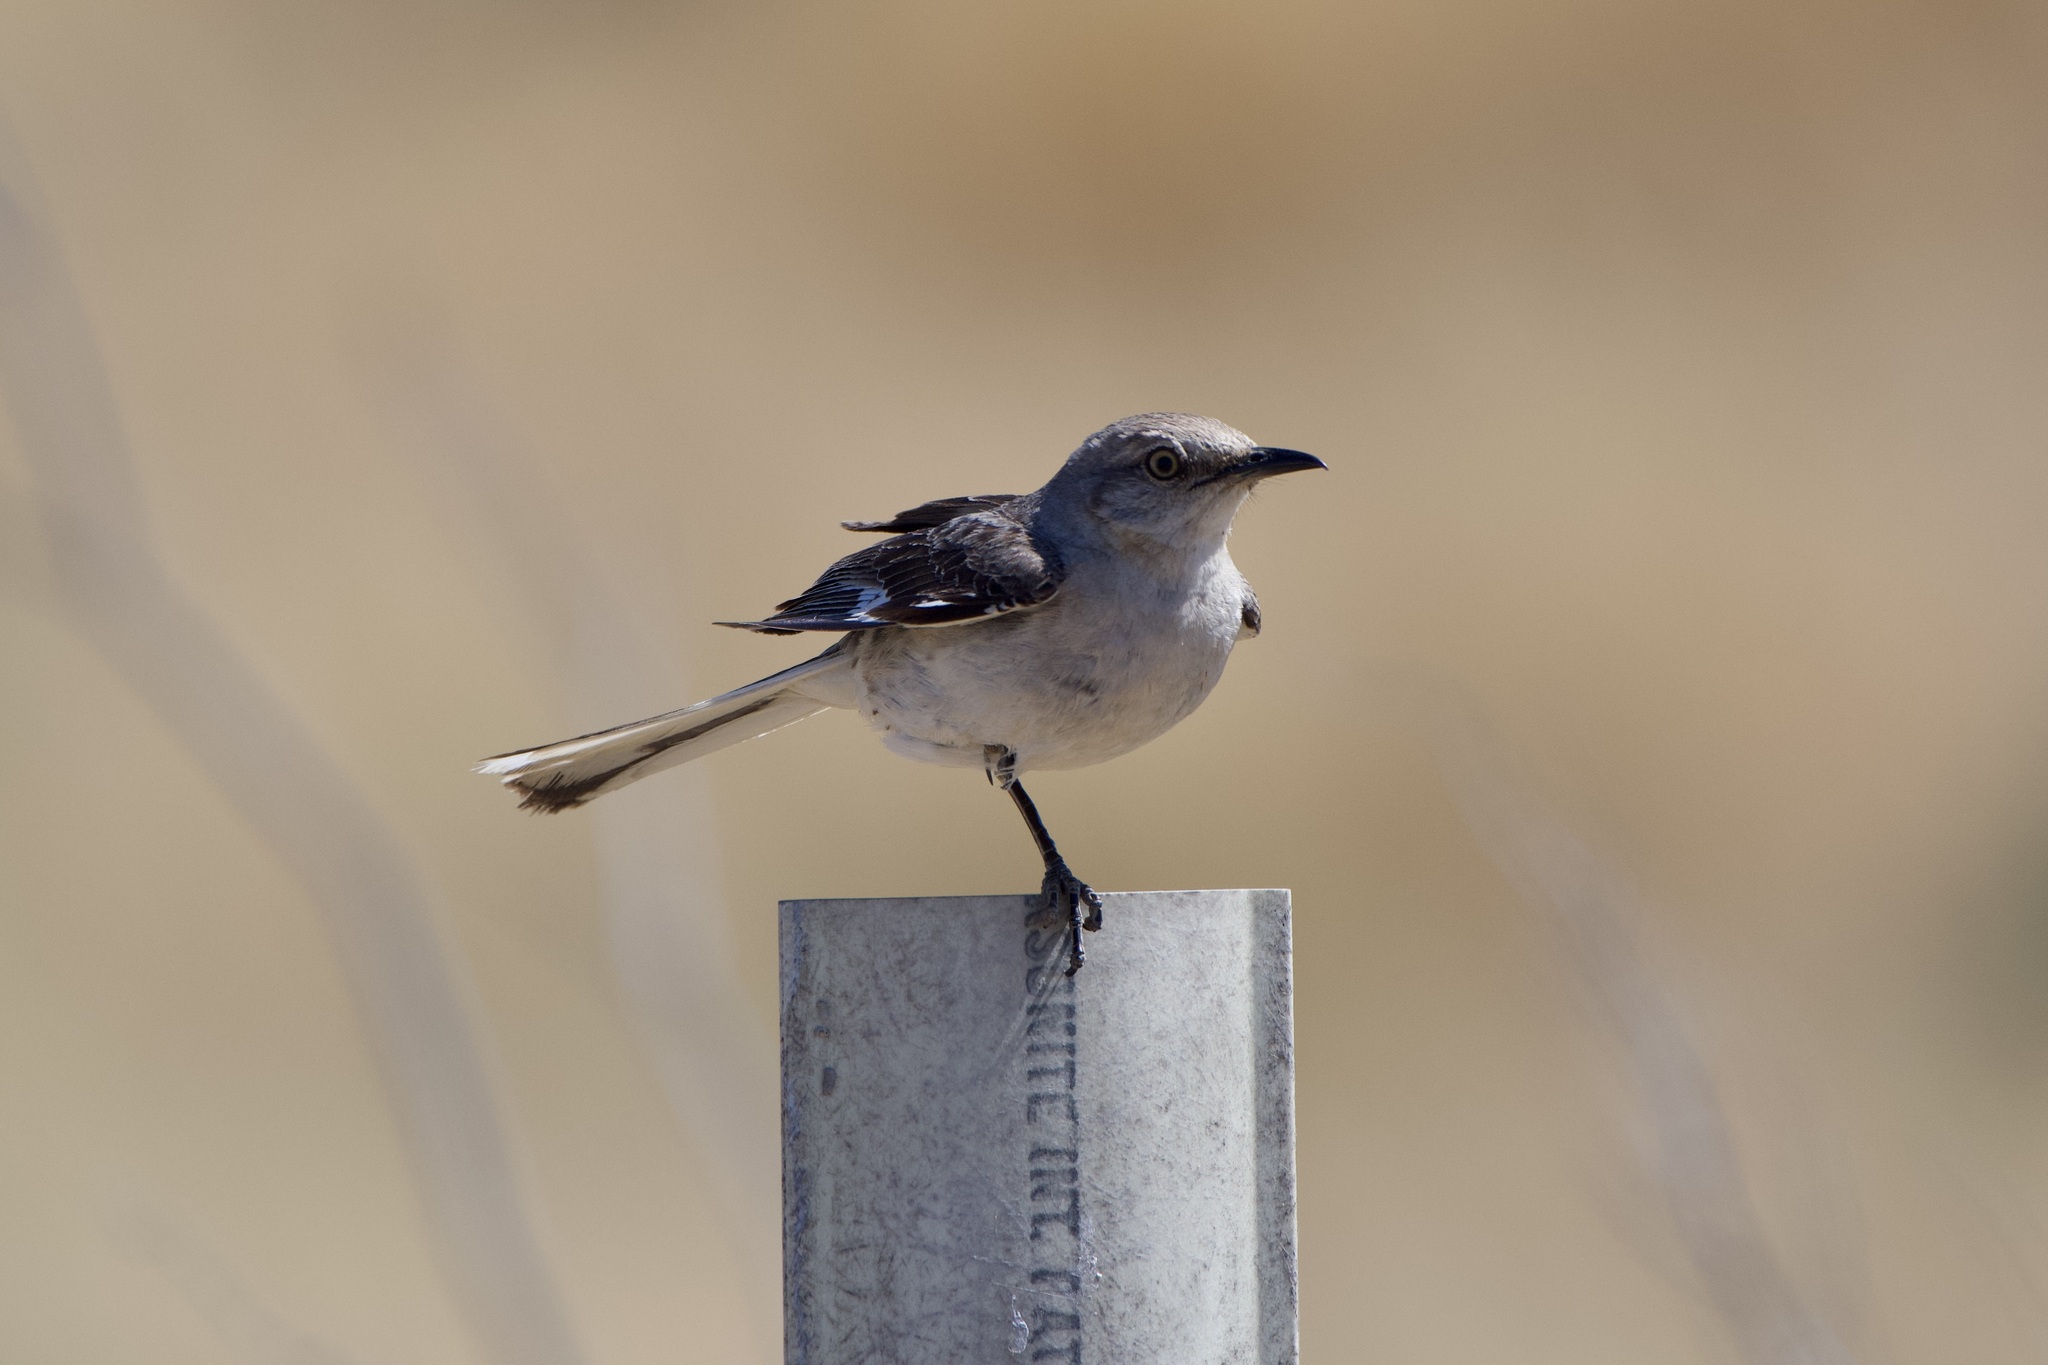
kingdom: Animalia
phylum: Chordata
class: Aves
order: Passeriformes
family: Mimidae
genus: Mimus
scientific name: Mimus polyglottos
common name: Northern mockingbird
